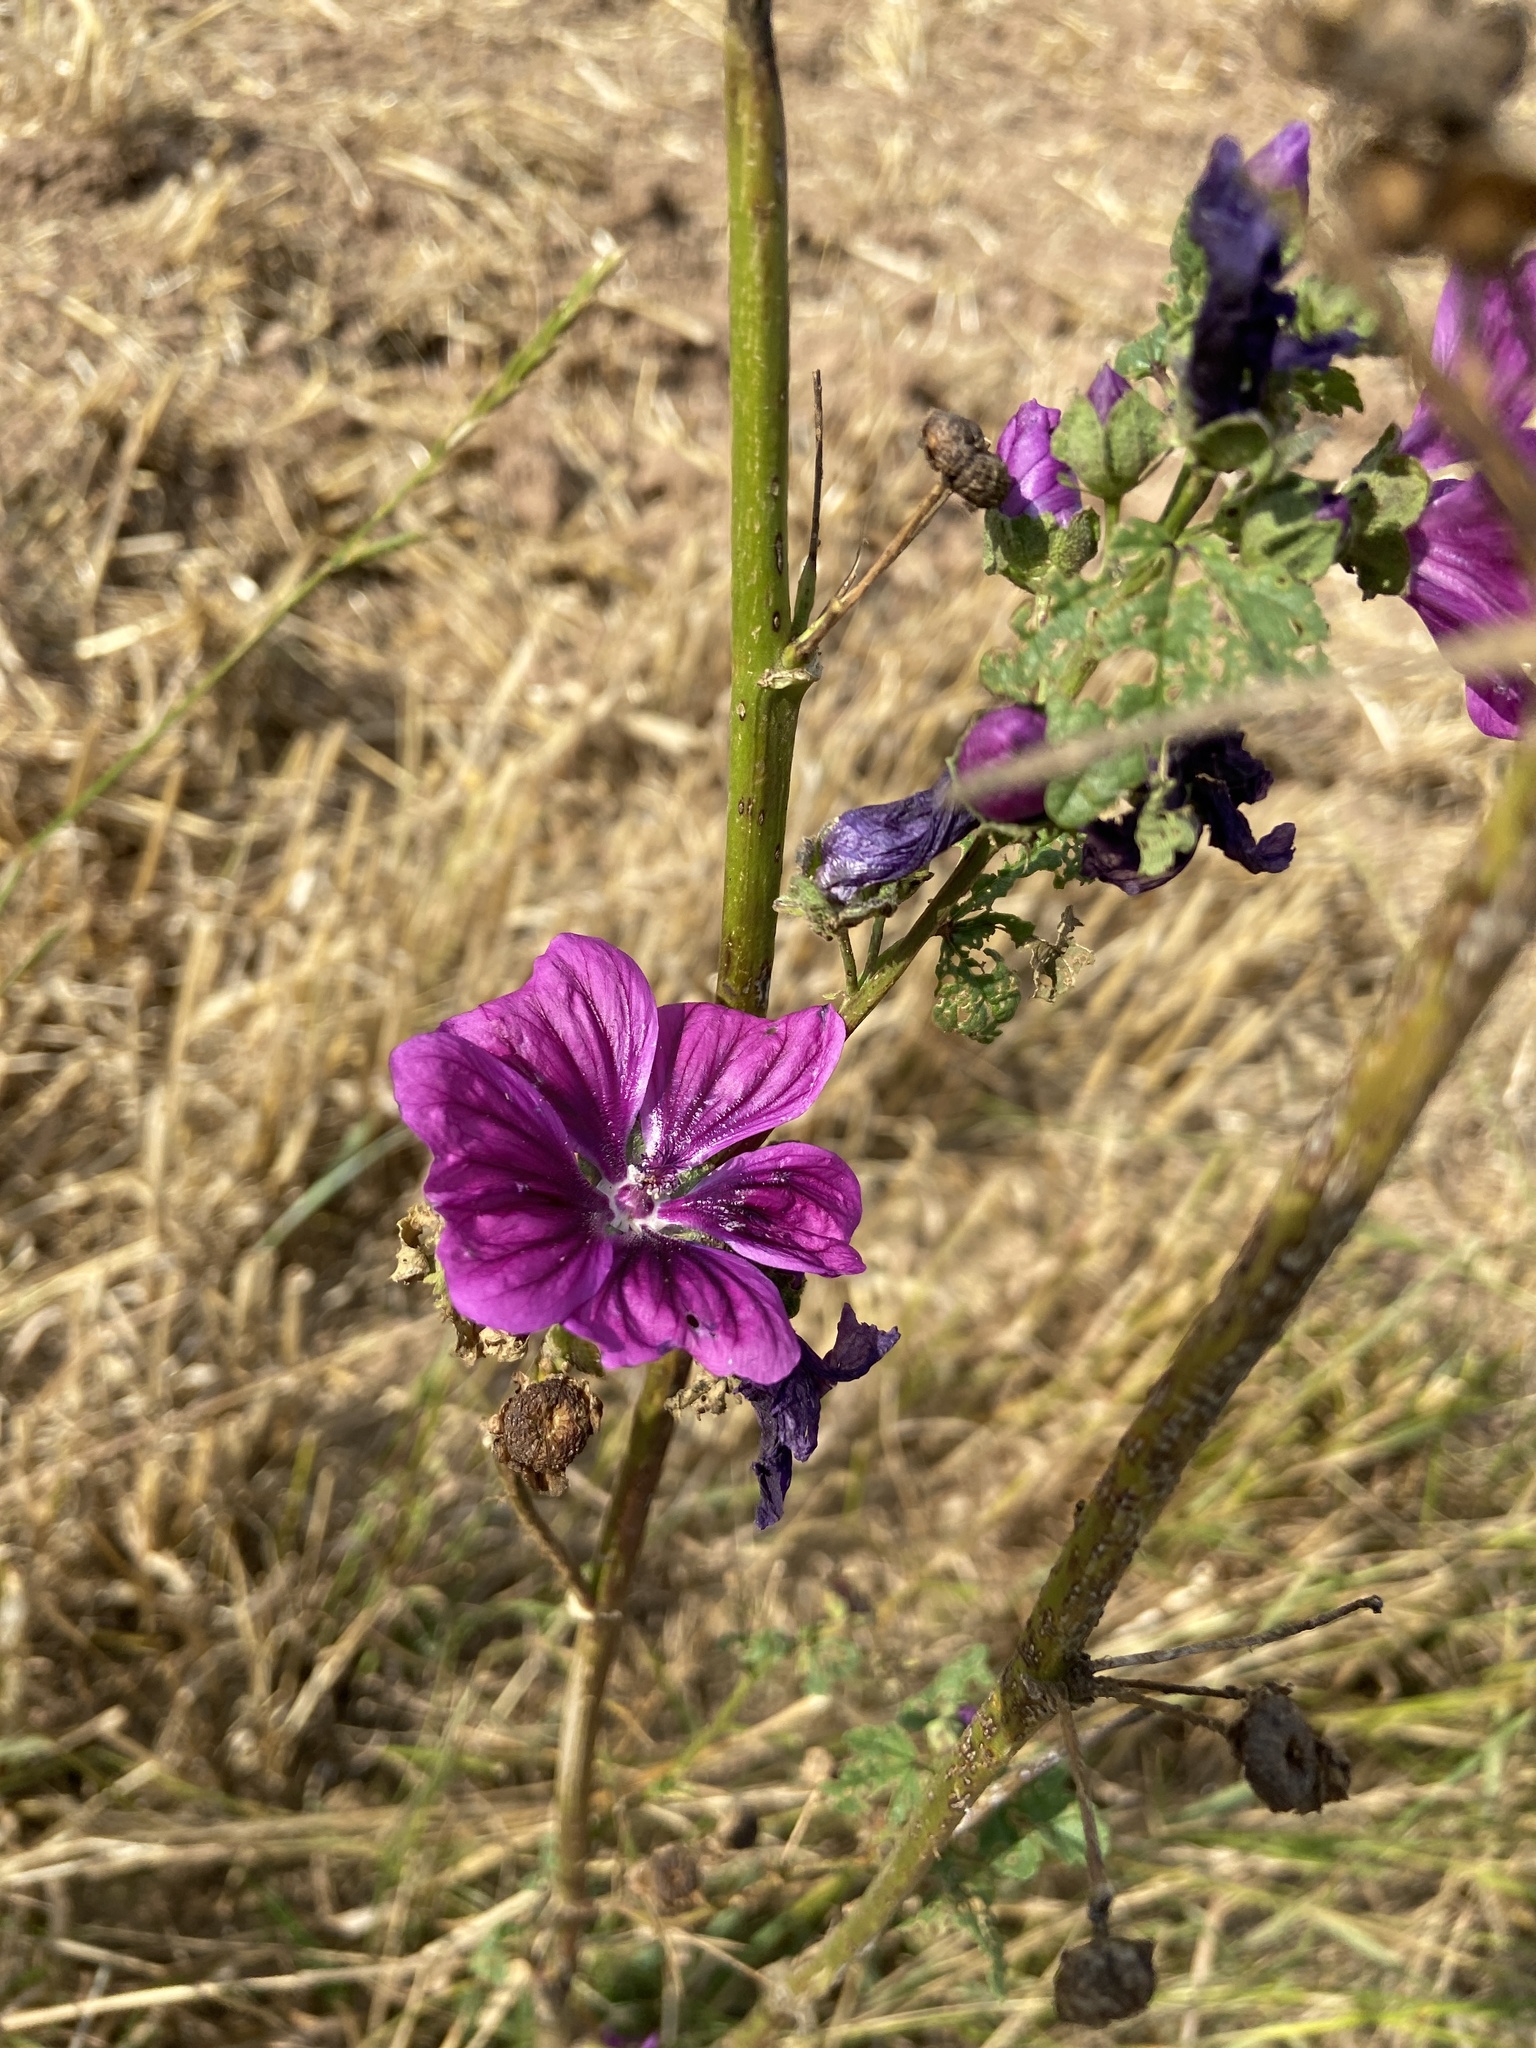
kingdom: Plantae
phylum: Tracheophyta
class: Magnoliopsida
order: Malvales
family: Malvaceae
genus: Malva
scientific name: Malva sylvestris
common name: Common mallow
